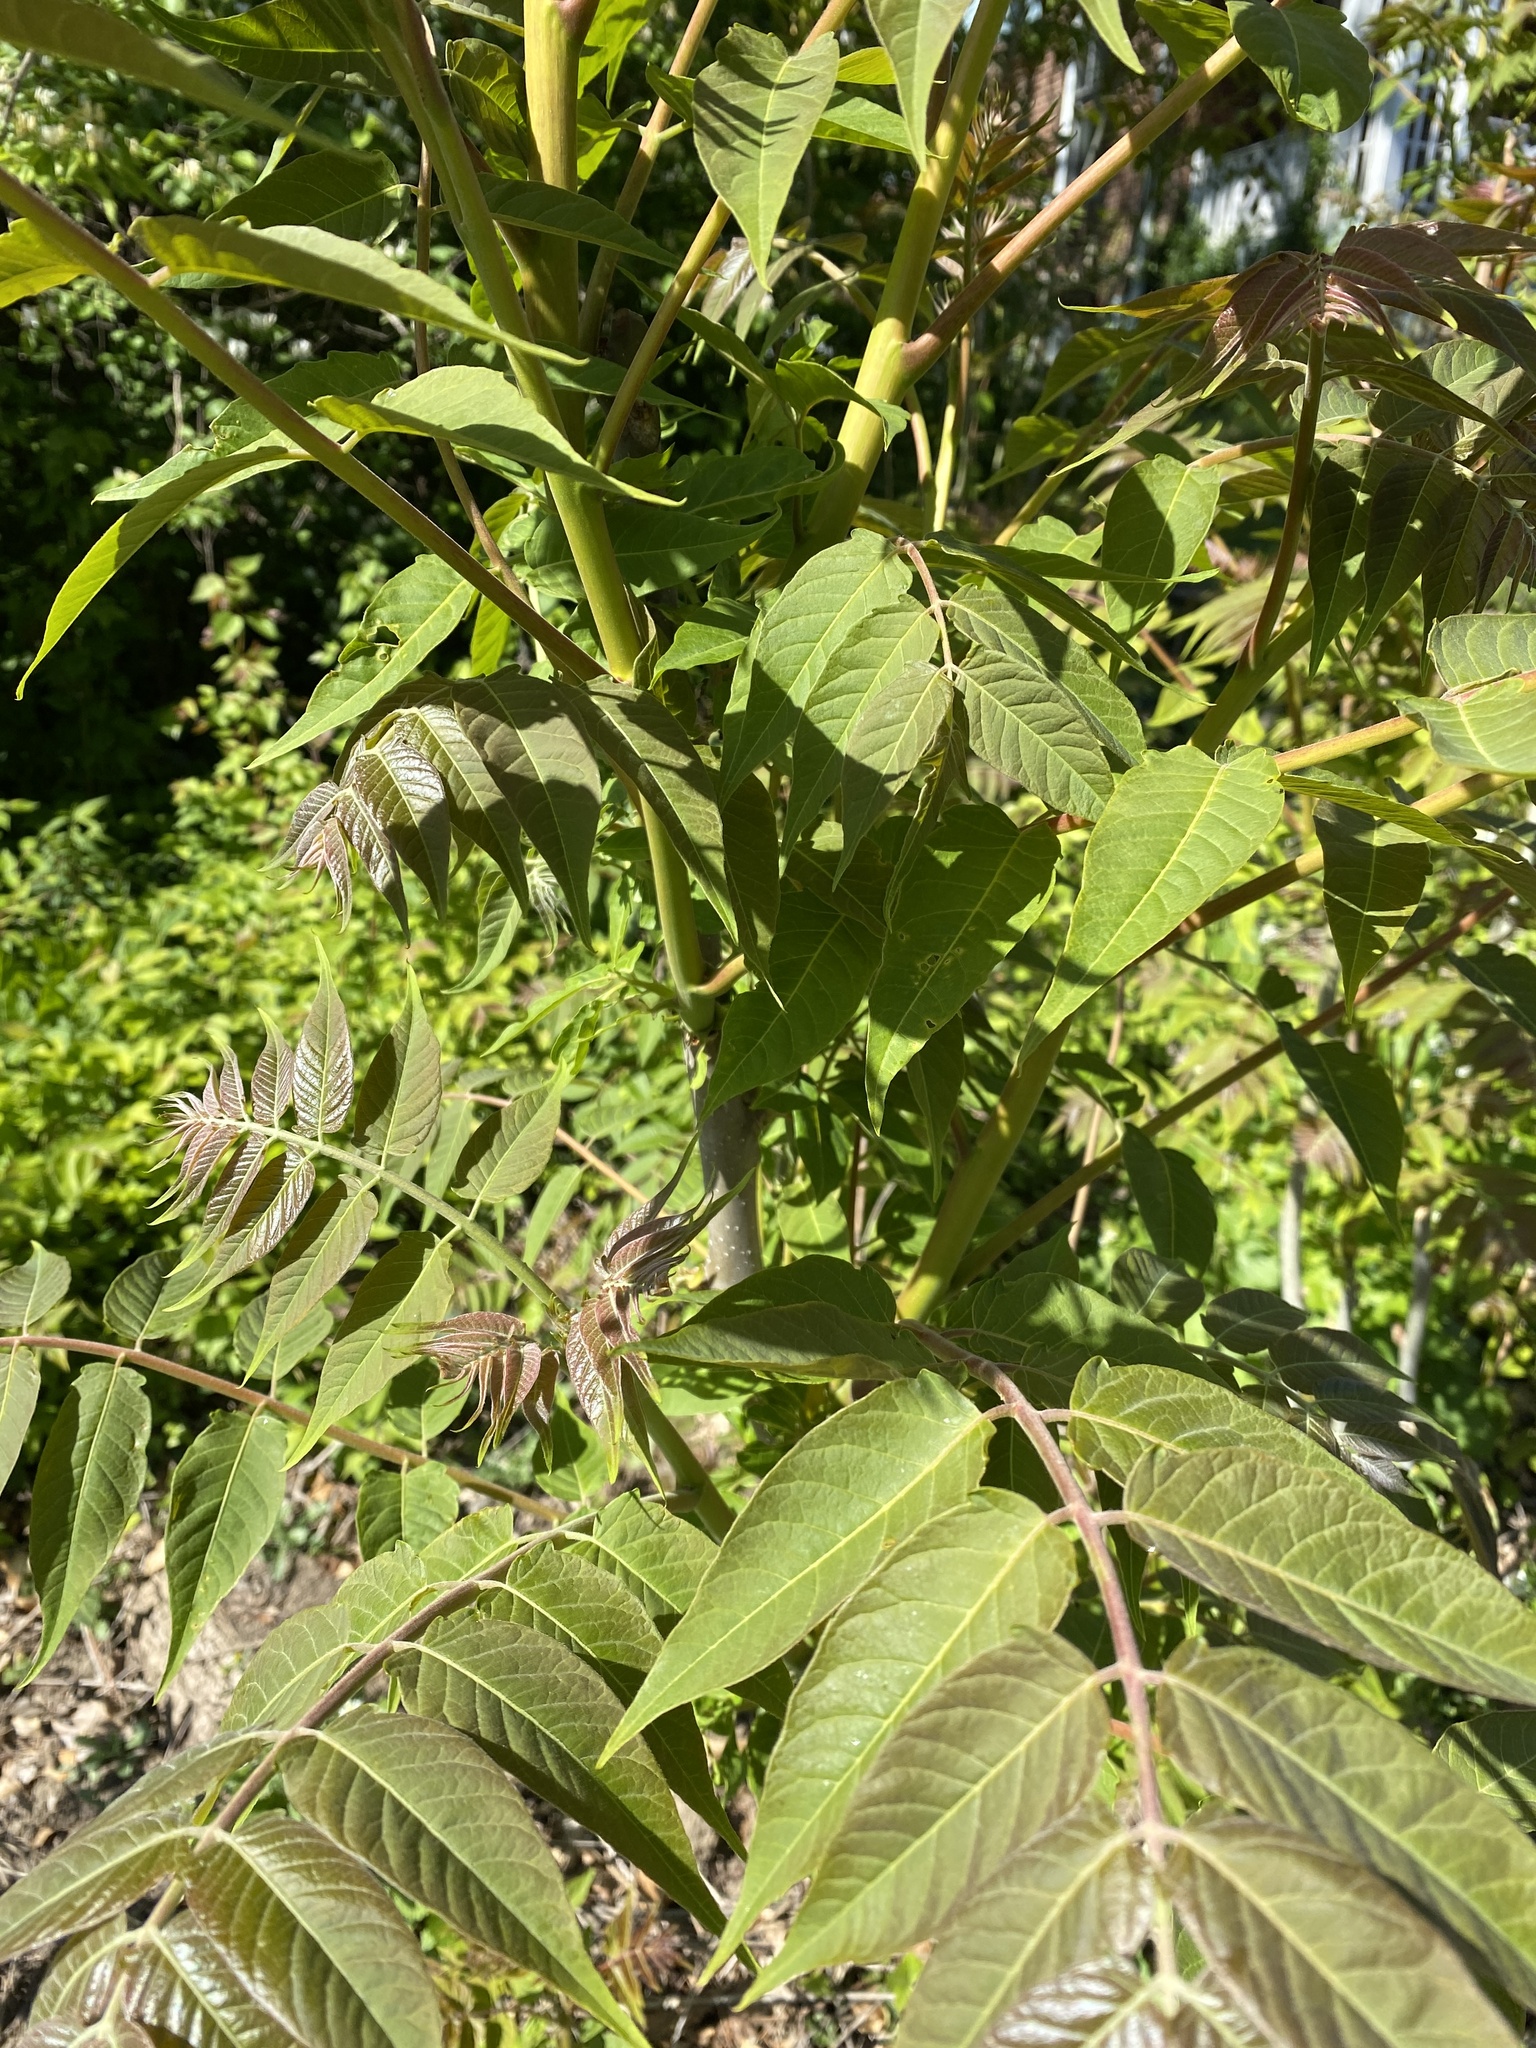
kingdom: Plantae
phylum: Tracheophyta
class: Magnoliopsida
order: Sapindales
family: Simaroubaceae
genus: Ailanthus
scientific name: Ailanthus altissima
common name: Tree-of-heaven
